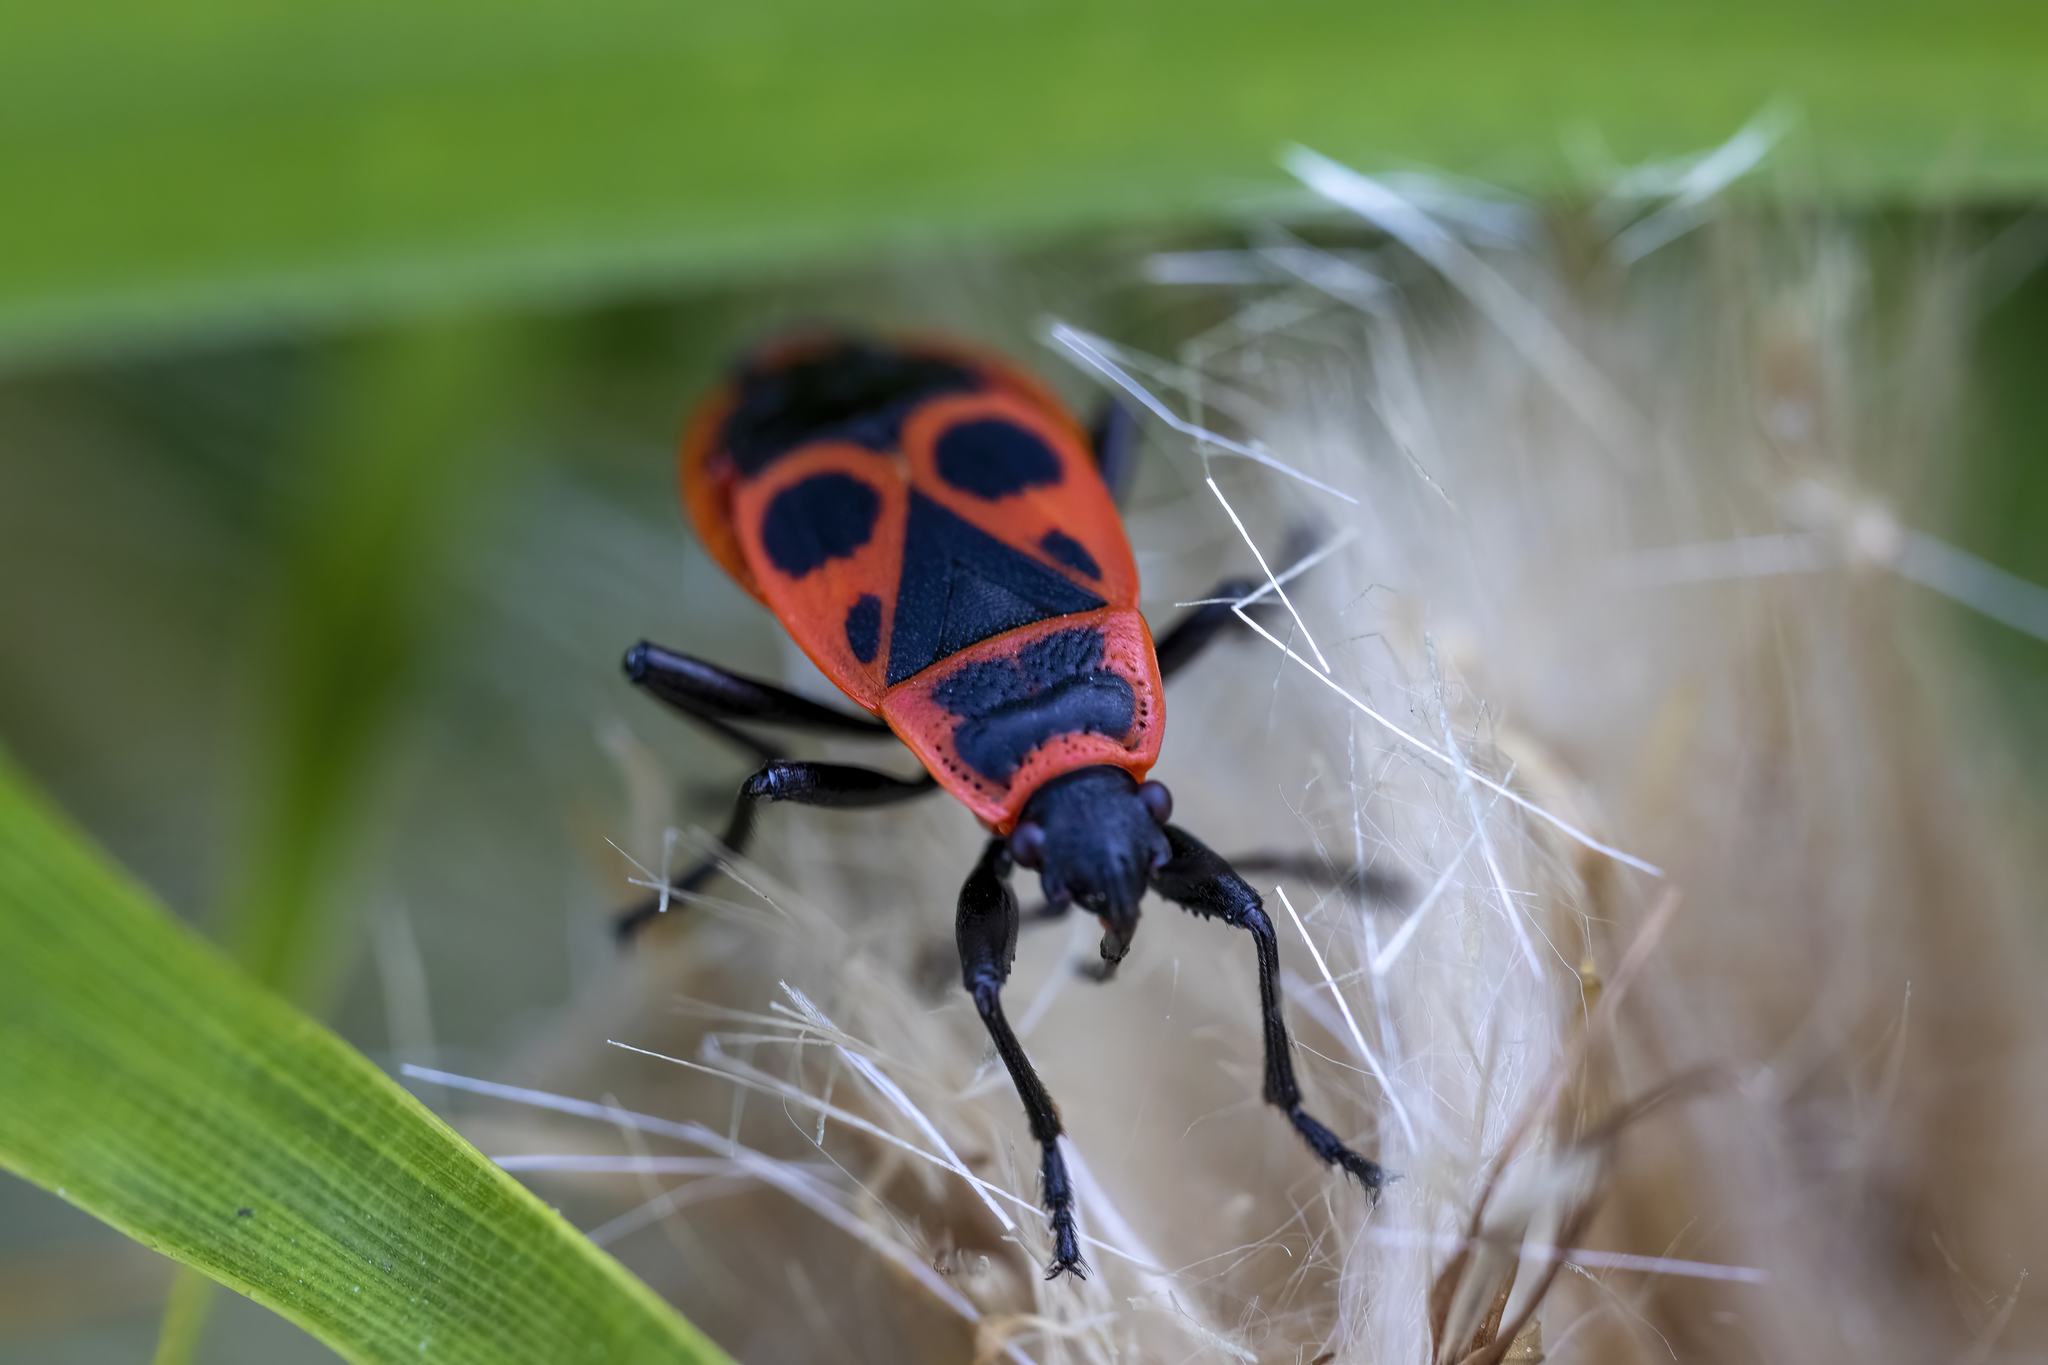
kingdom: Animalia
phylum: Arthropoda
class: Insecta
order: Hemiptera
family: Pyrrhocoridae
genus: Pyrrhocoris
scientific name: Pyrrhocoris apterus
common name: Firebug
